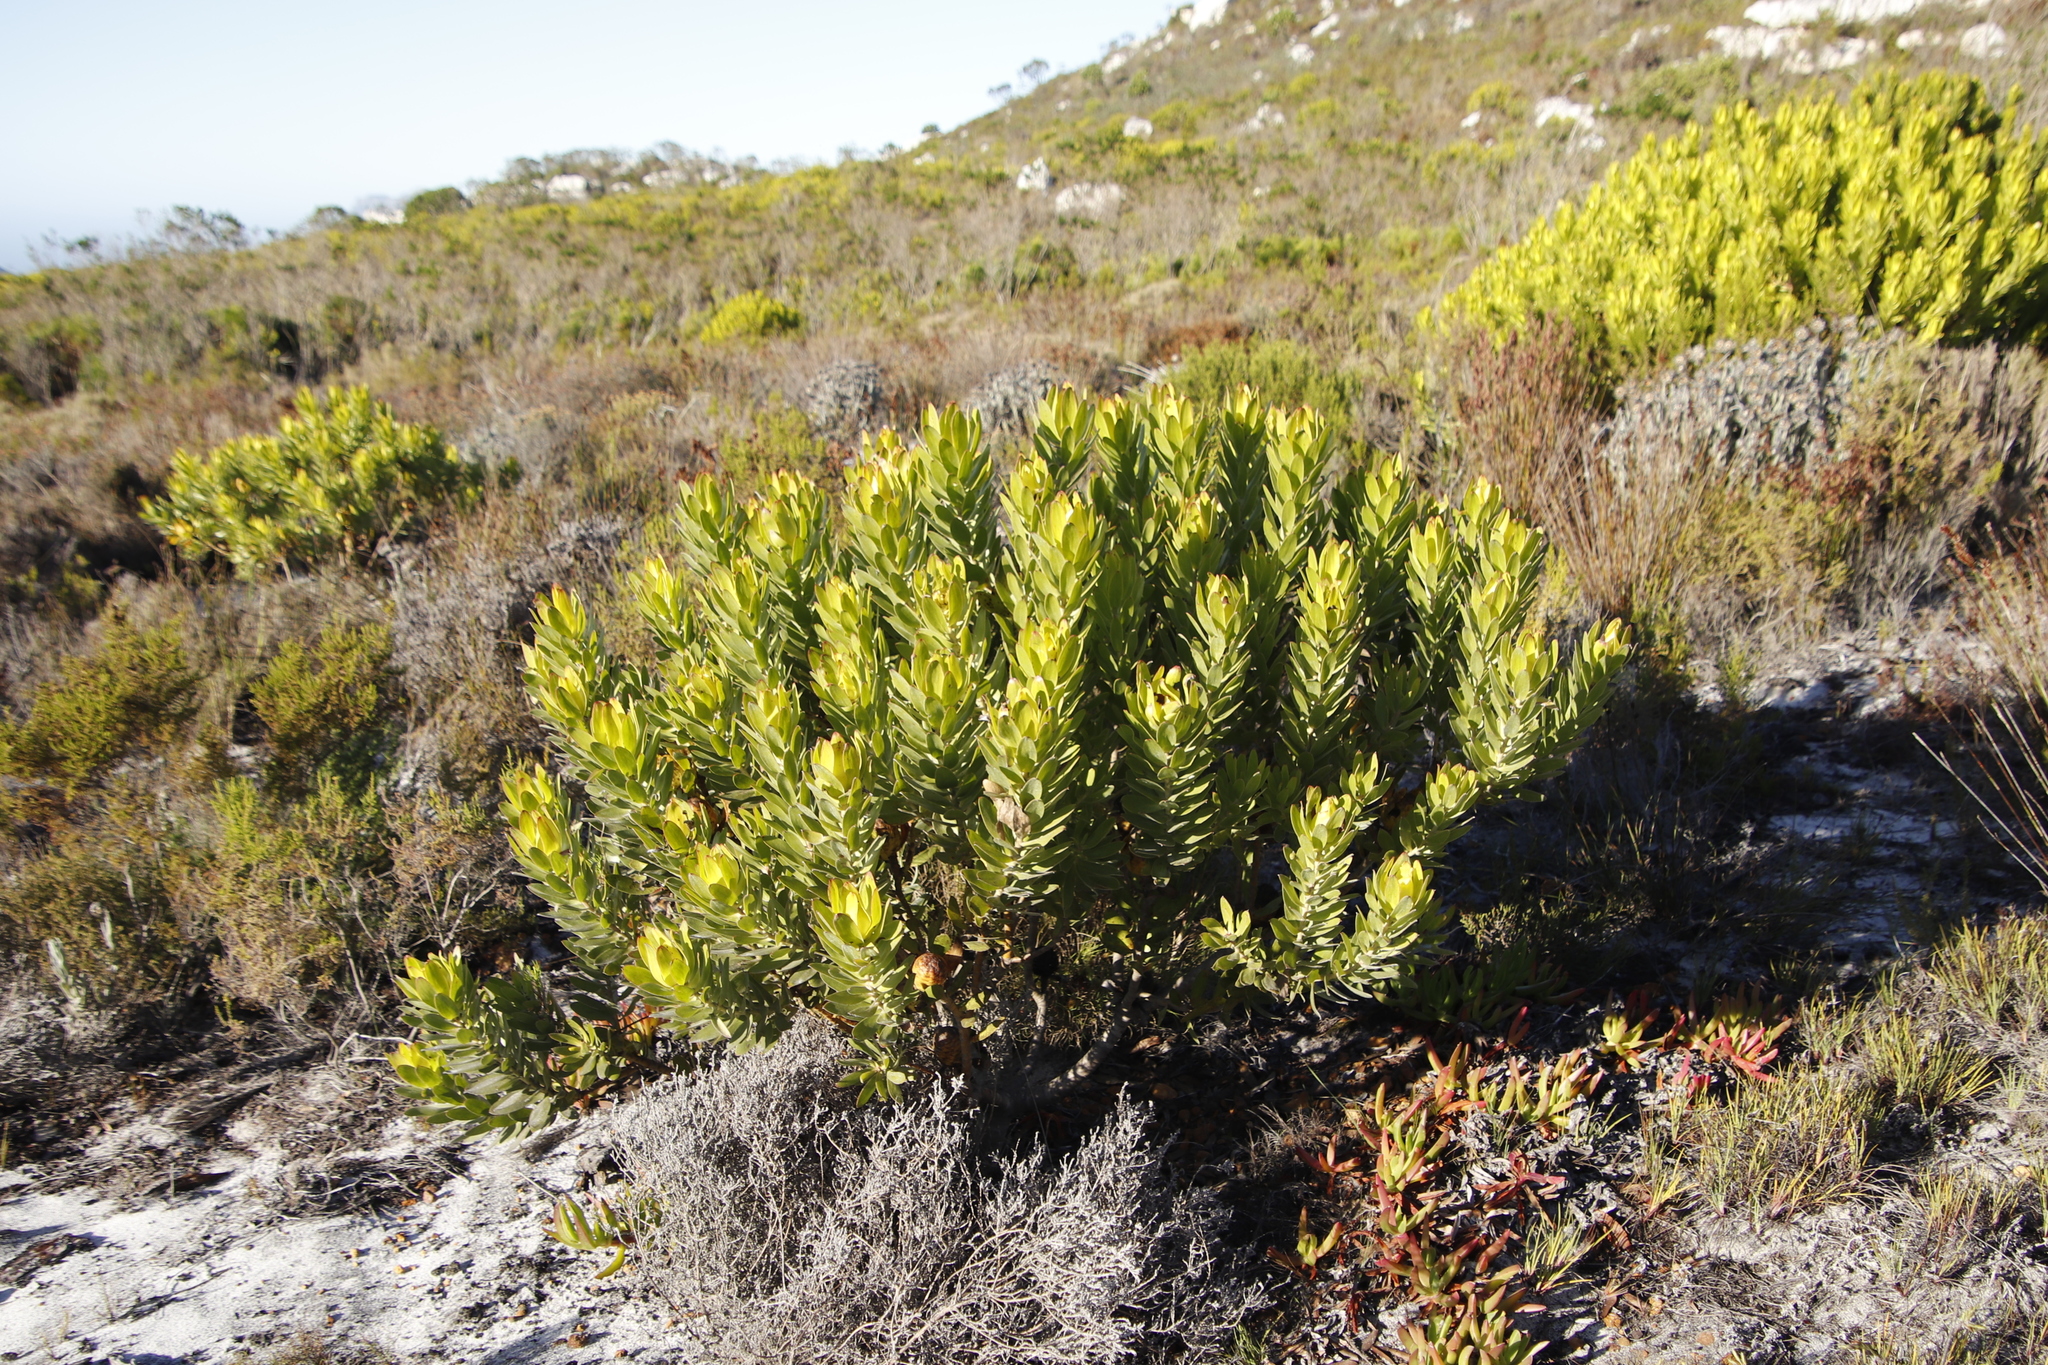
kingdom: Plantae
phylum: Tracheophyta
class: Magnoliopsida
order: Proteales
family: Proteaceae
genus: Leucadendron
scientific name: Leucadendron laureolum
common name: Golden sunshinebush
